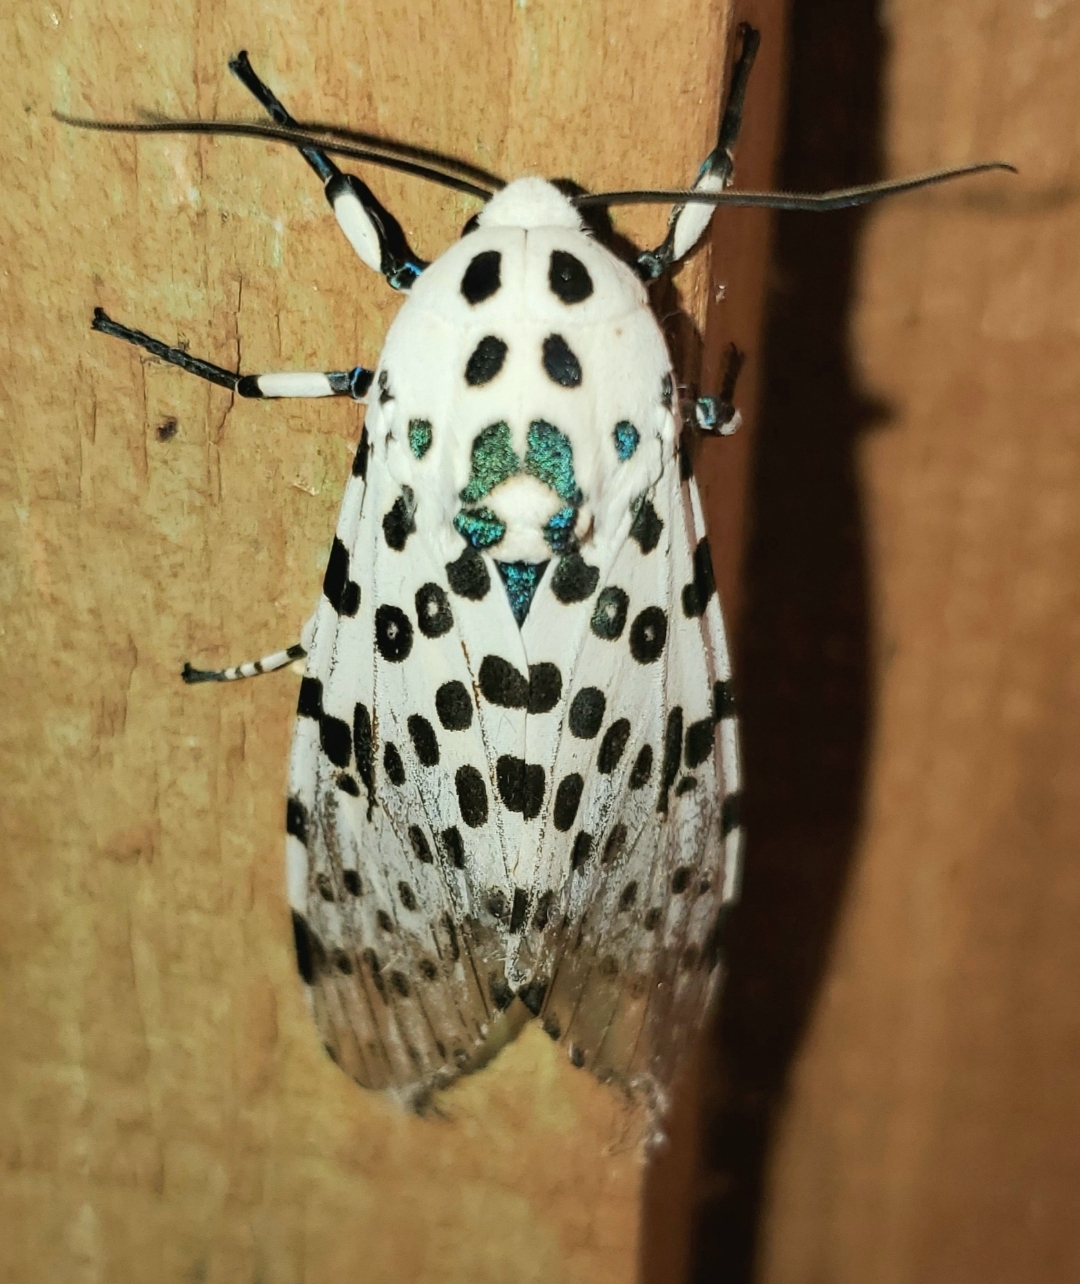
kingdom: Animalia
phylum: Arthropoda
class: Insecta
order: Lepidoptera
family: Erebidae
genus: Hypercompe
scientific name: Hypercompe scribonia
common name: Giant leopard moth
